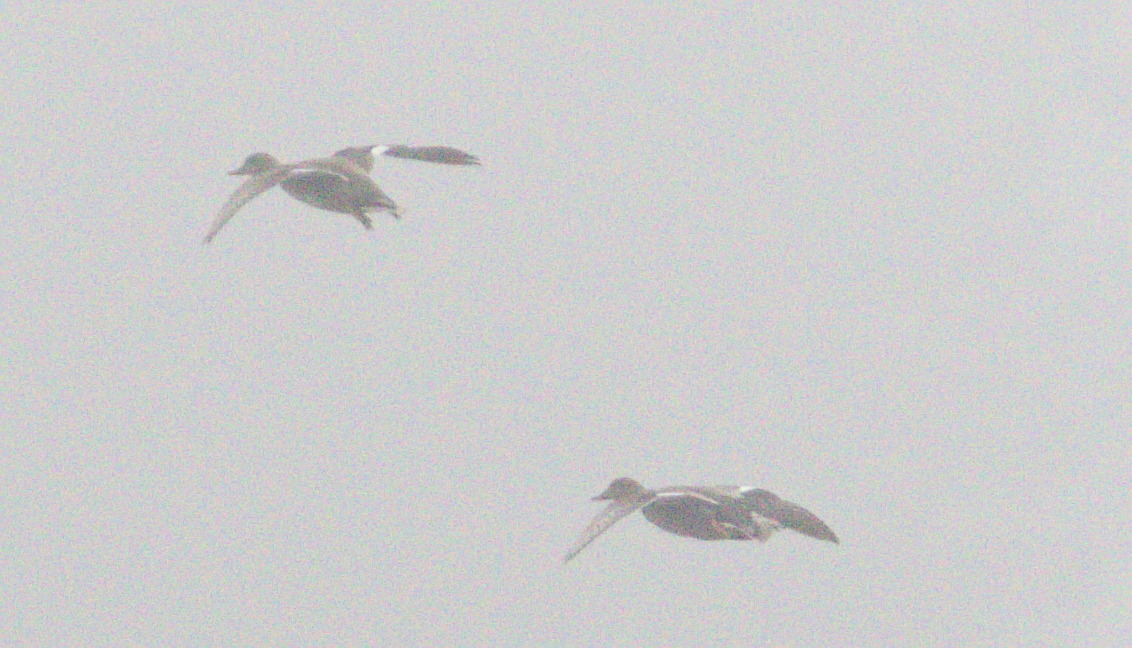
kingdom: Animalia
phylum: Chordata
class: Aves
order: Anseriformes
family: Anatidae
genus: Mareca
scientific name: Mareca strepera
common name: Gadwall
